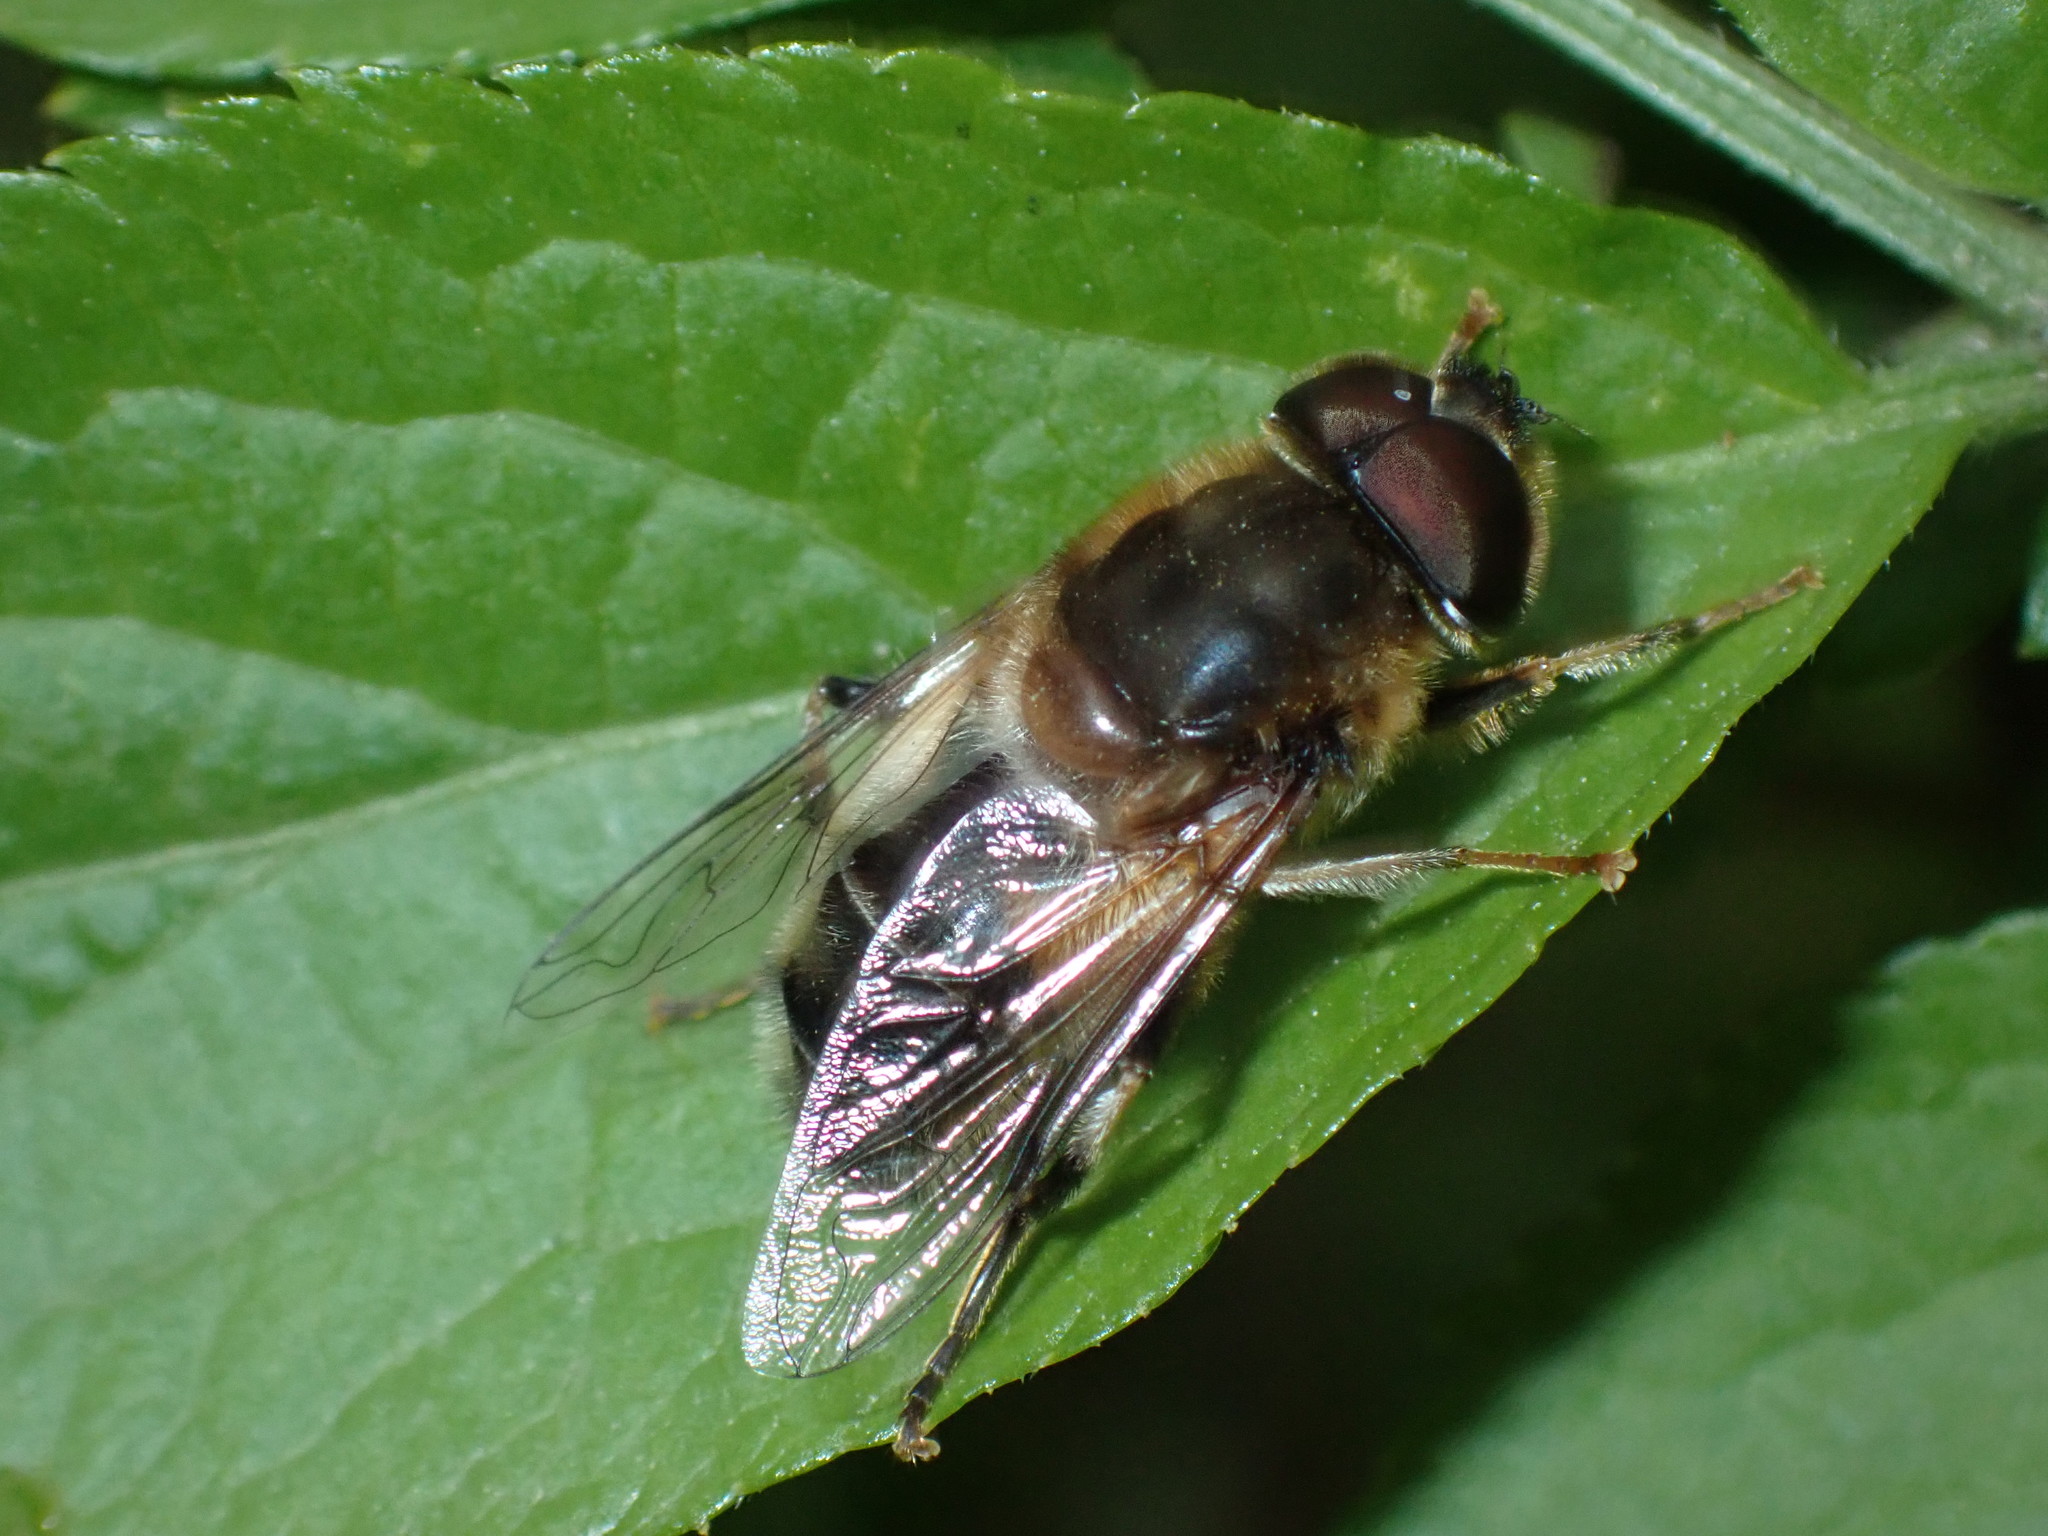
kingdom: Animalia
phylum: Arthropoda
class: Insecta
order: Diptera
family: Syrphidae
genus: Eristalis
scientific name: Eristalis pertinax
